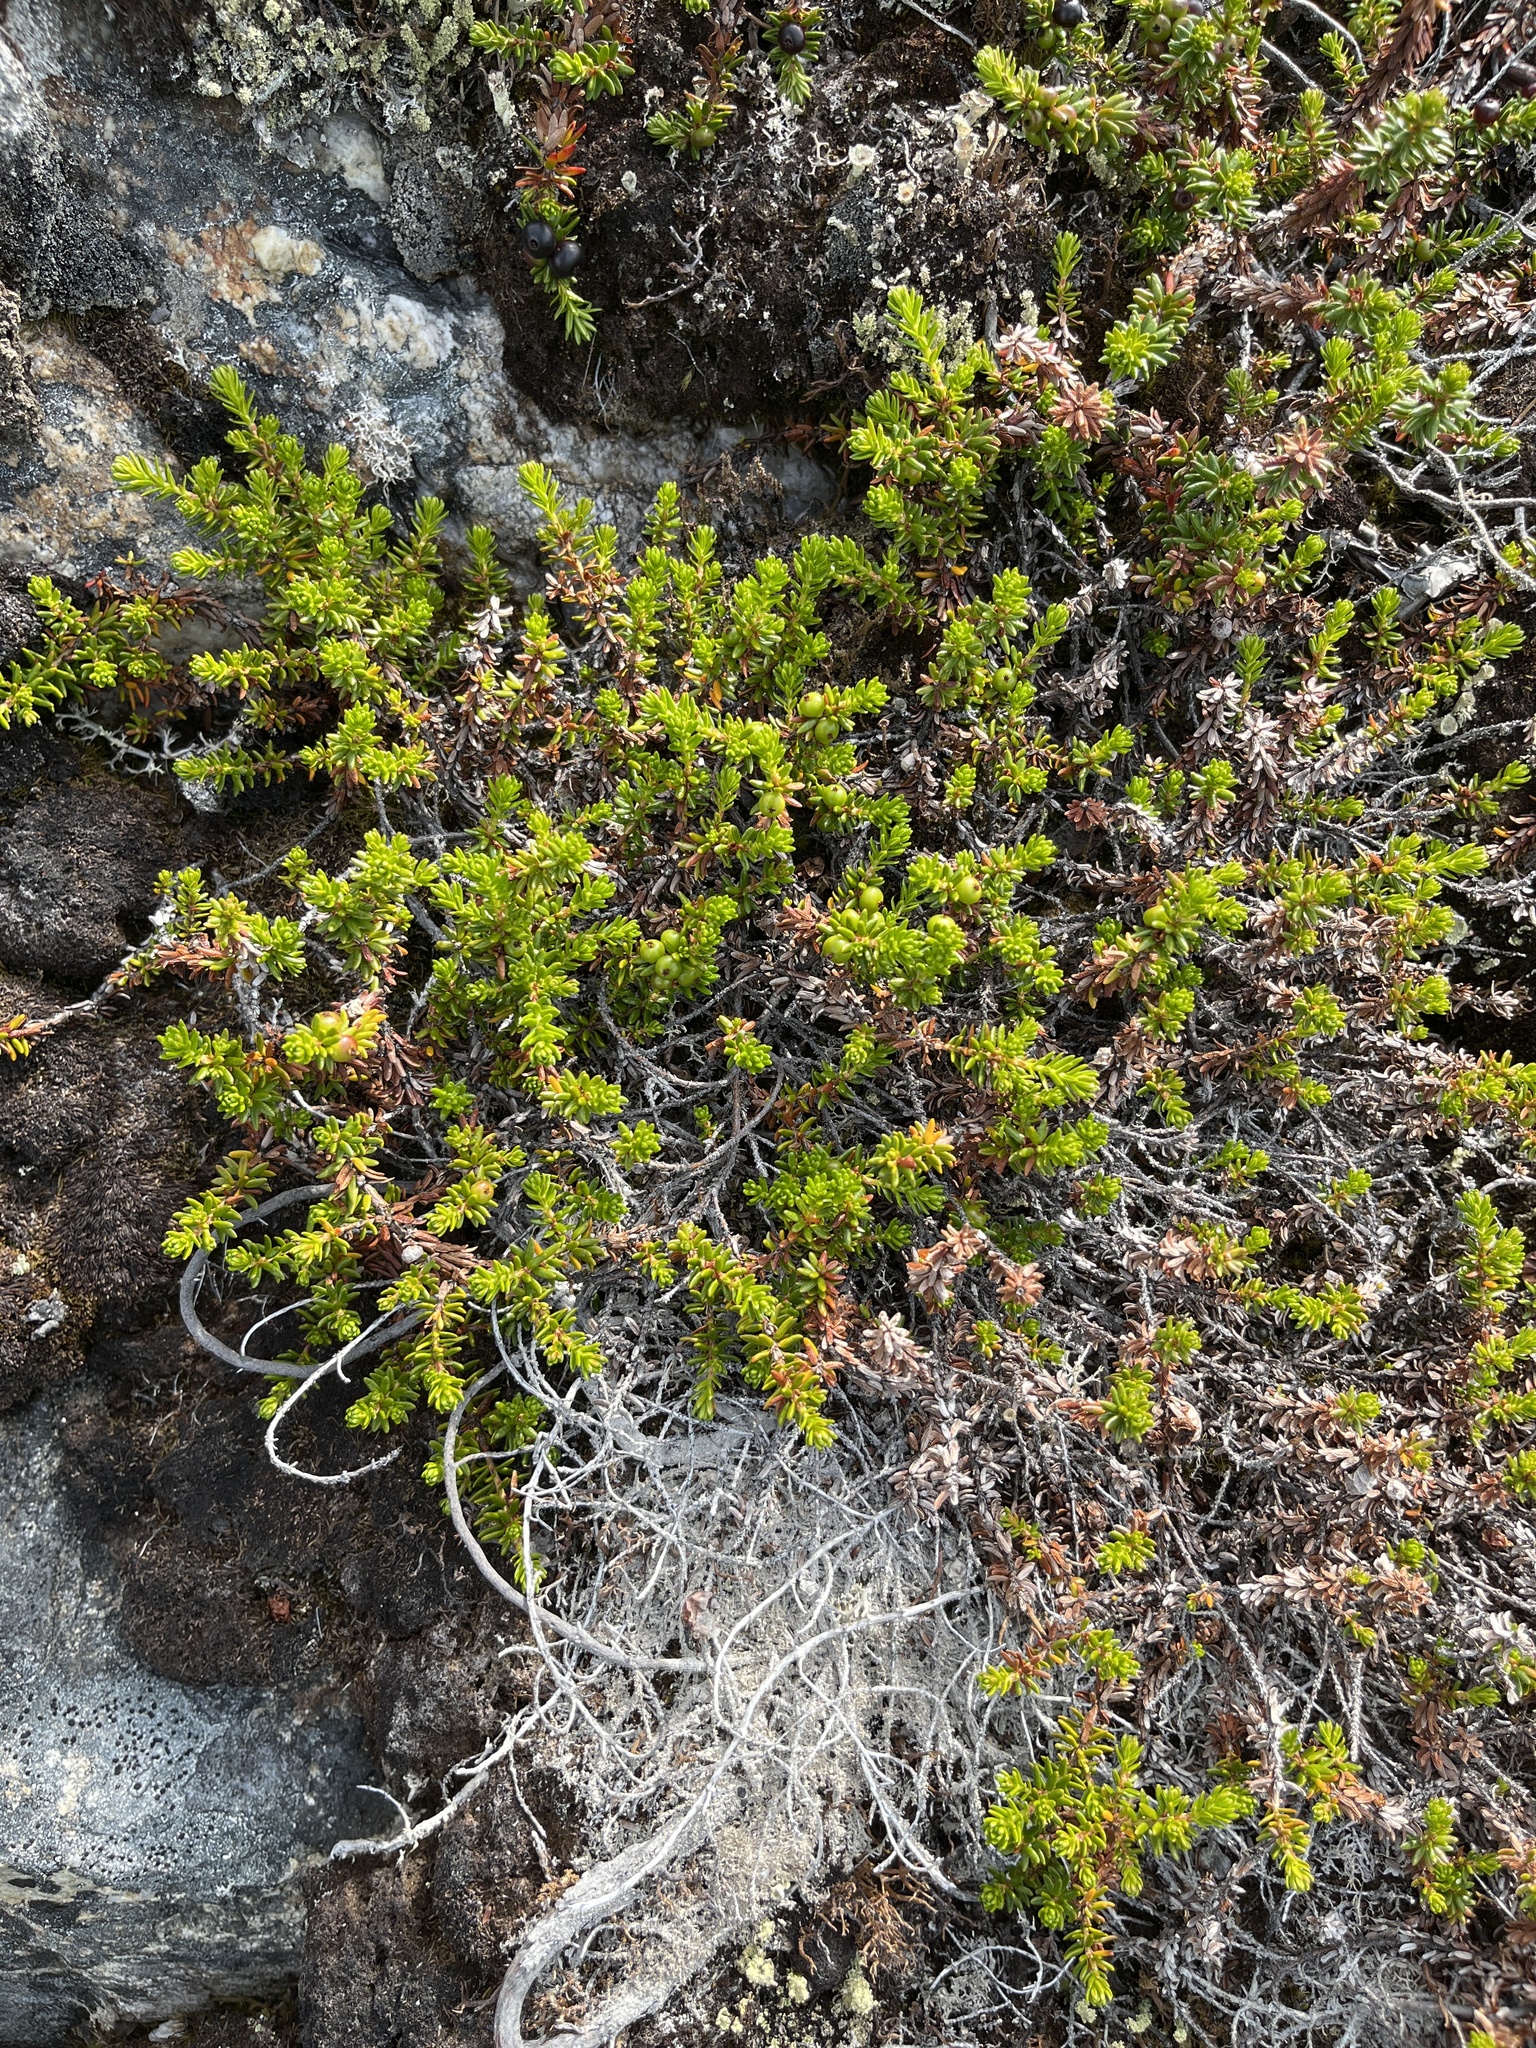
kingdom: Plantae
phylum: Tracheophyta
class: Magnoliopsida
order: Ericales
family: Ericaceae
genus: Empetrum
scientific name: Empetrum hermaphroditum
